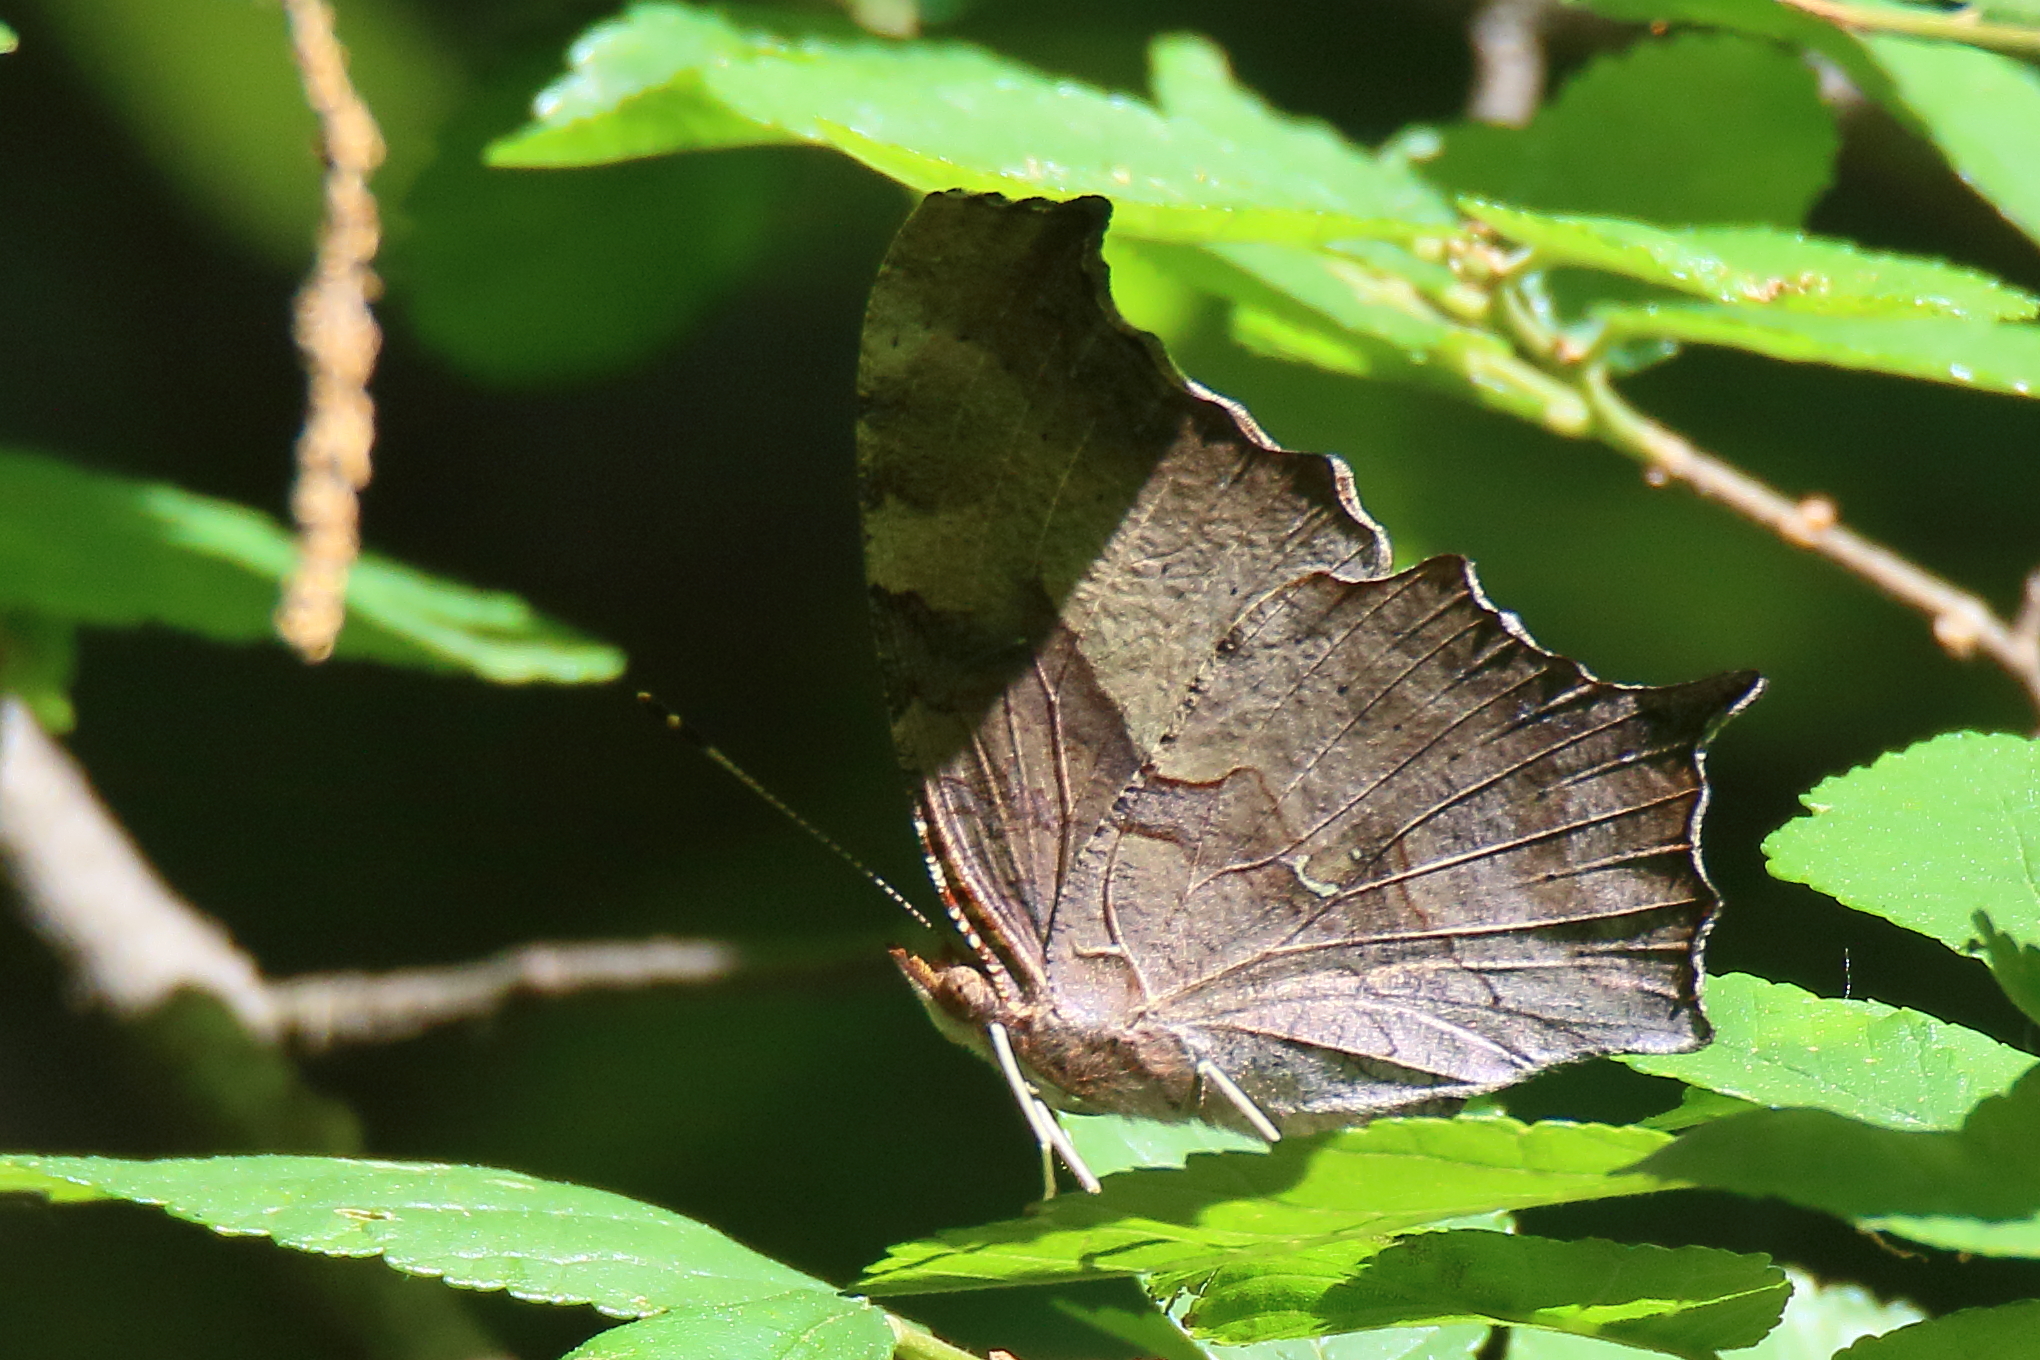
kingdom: Animalia
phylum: Arthropoda
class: Insecta
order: Lepidoptera
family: Nymphalidae
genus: Polygonia
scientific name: Polygonia interrogationis
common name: Question mark
